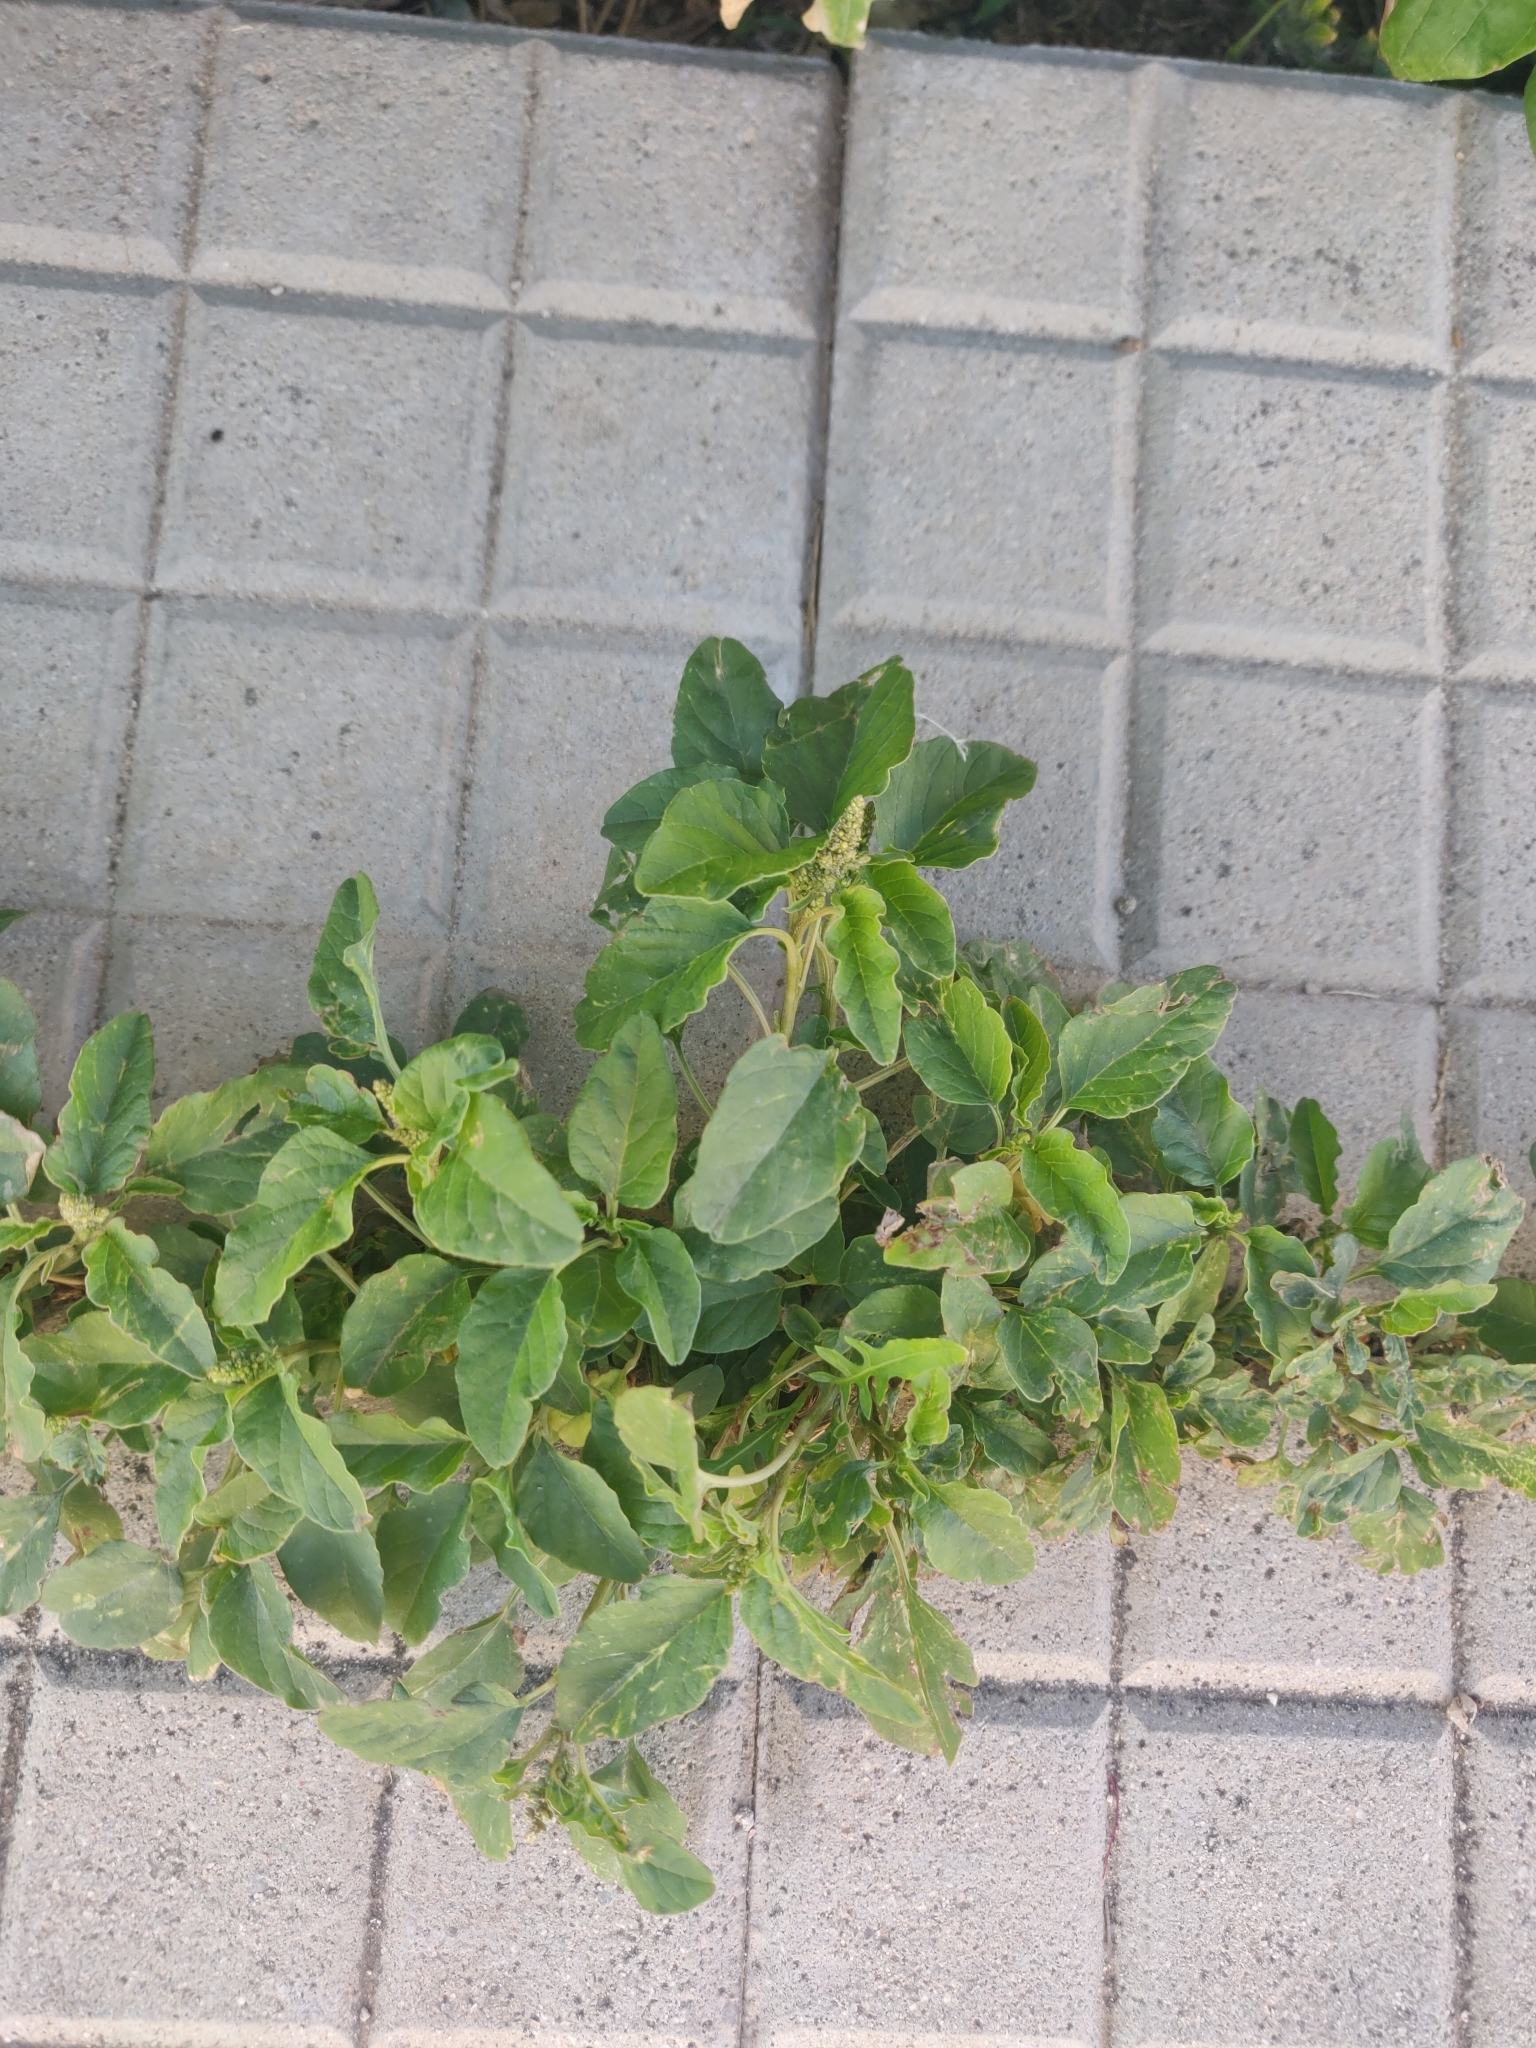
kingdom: Plantae
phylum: Tracheophyta
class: Magnoliopsida
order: Caryophyllales
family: Amaranthaceae
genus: Amaranthus
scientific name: Amaranthus blitum
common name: Purple amaranth
